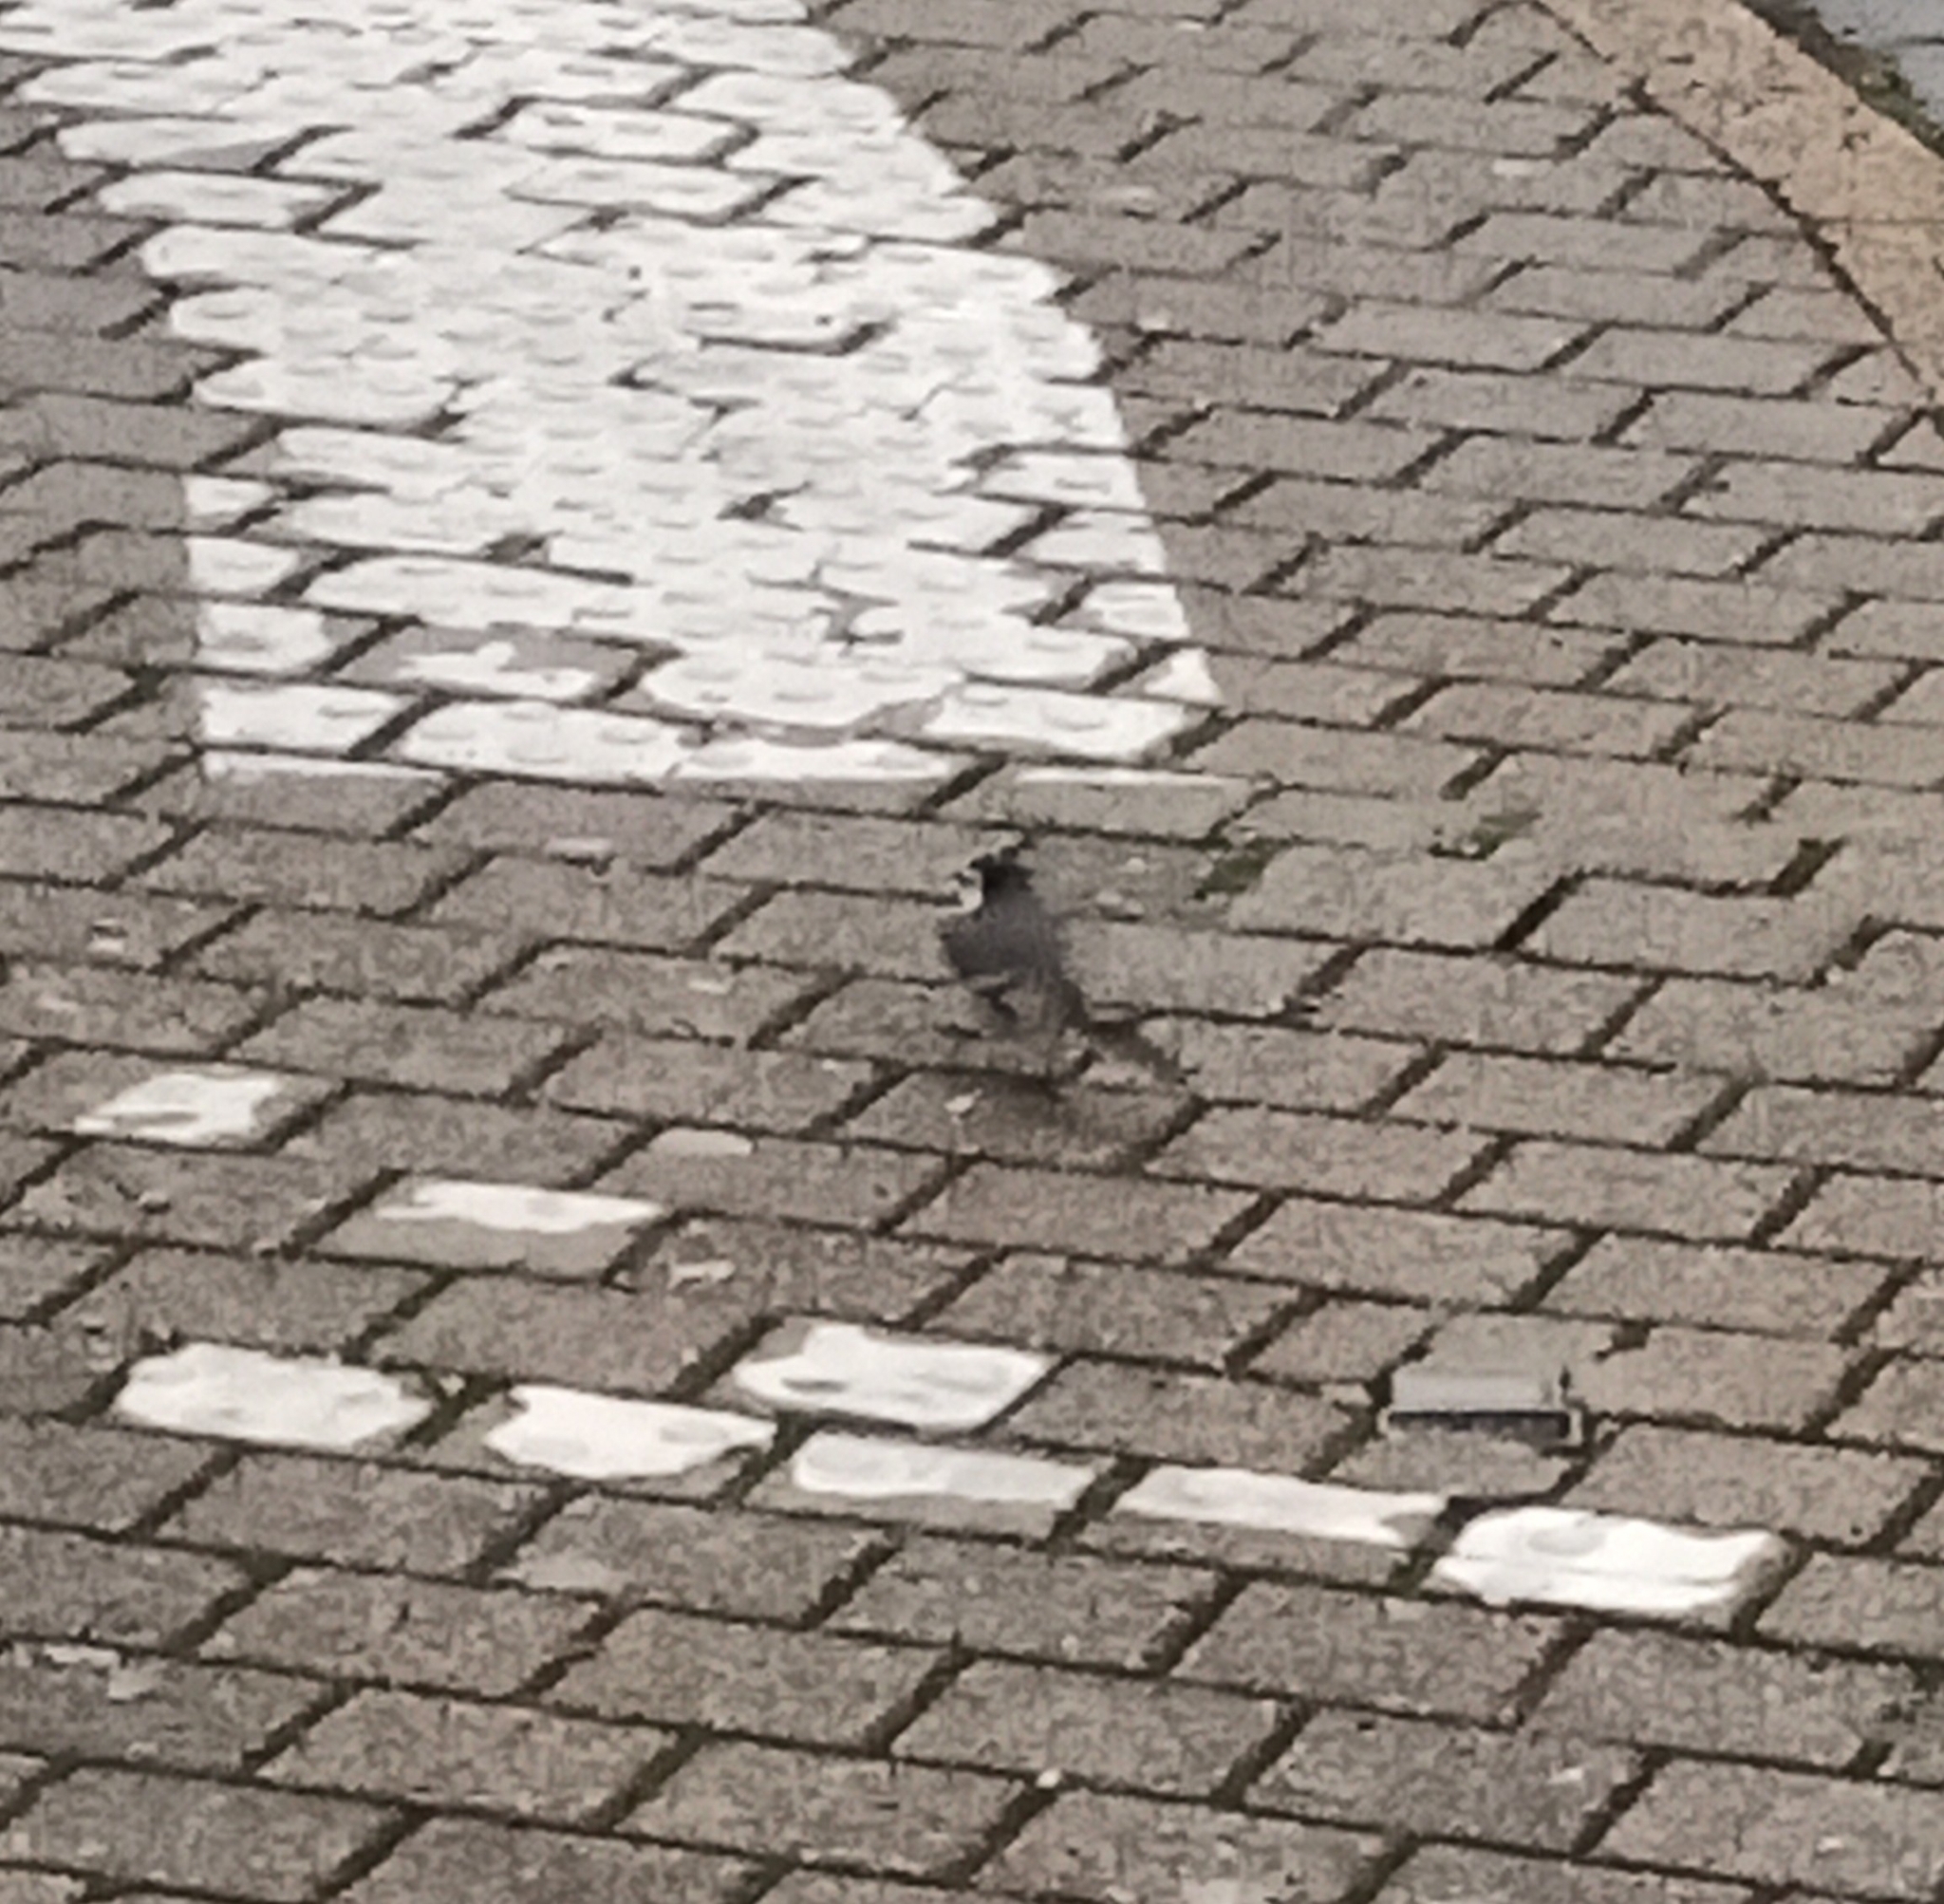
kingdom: Animalia
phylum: Chordata
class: Aves
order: Passeriformes
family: Motacillidae
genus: Motacilla
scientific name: Motacilla alba
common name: White wagtail
